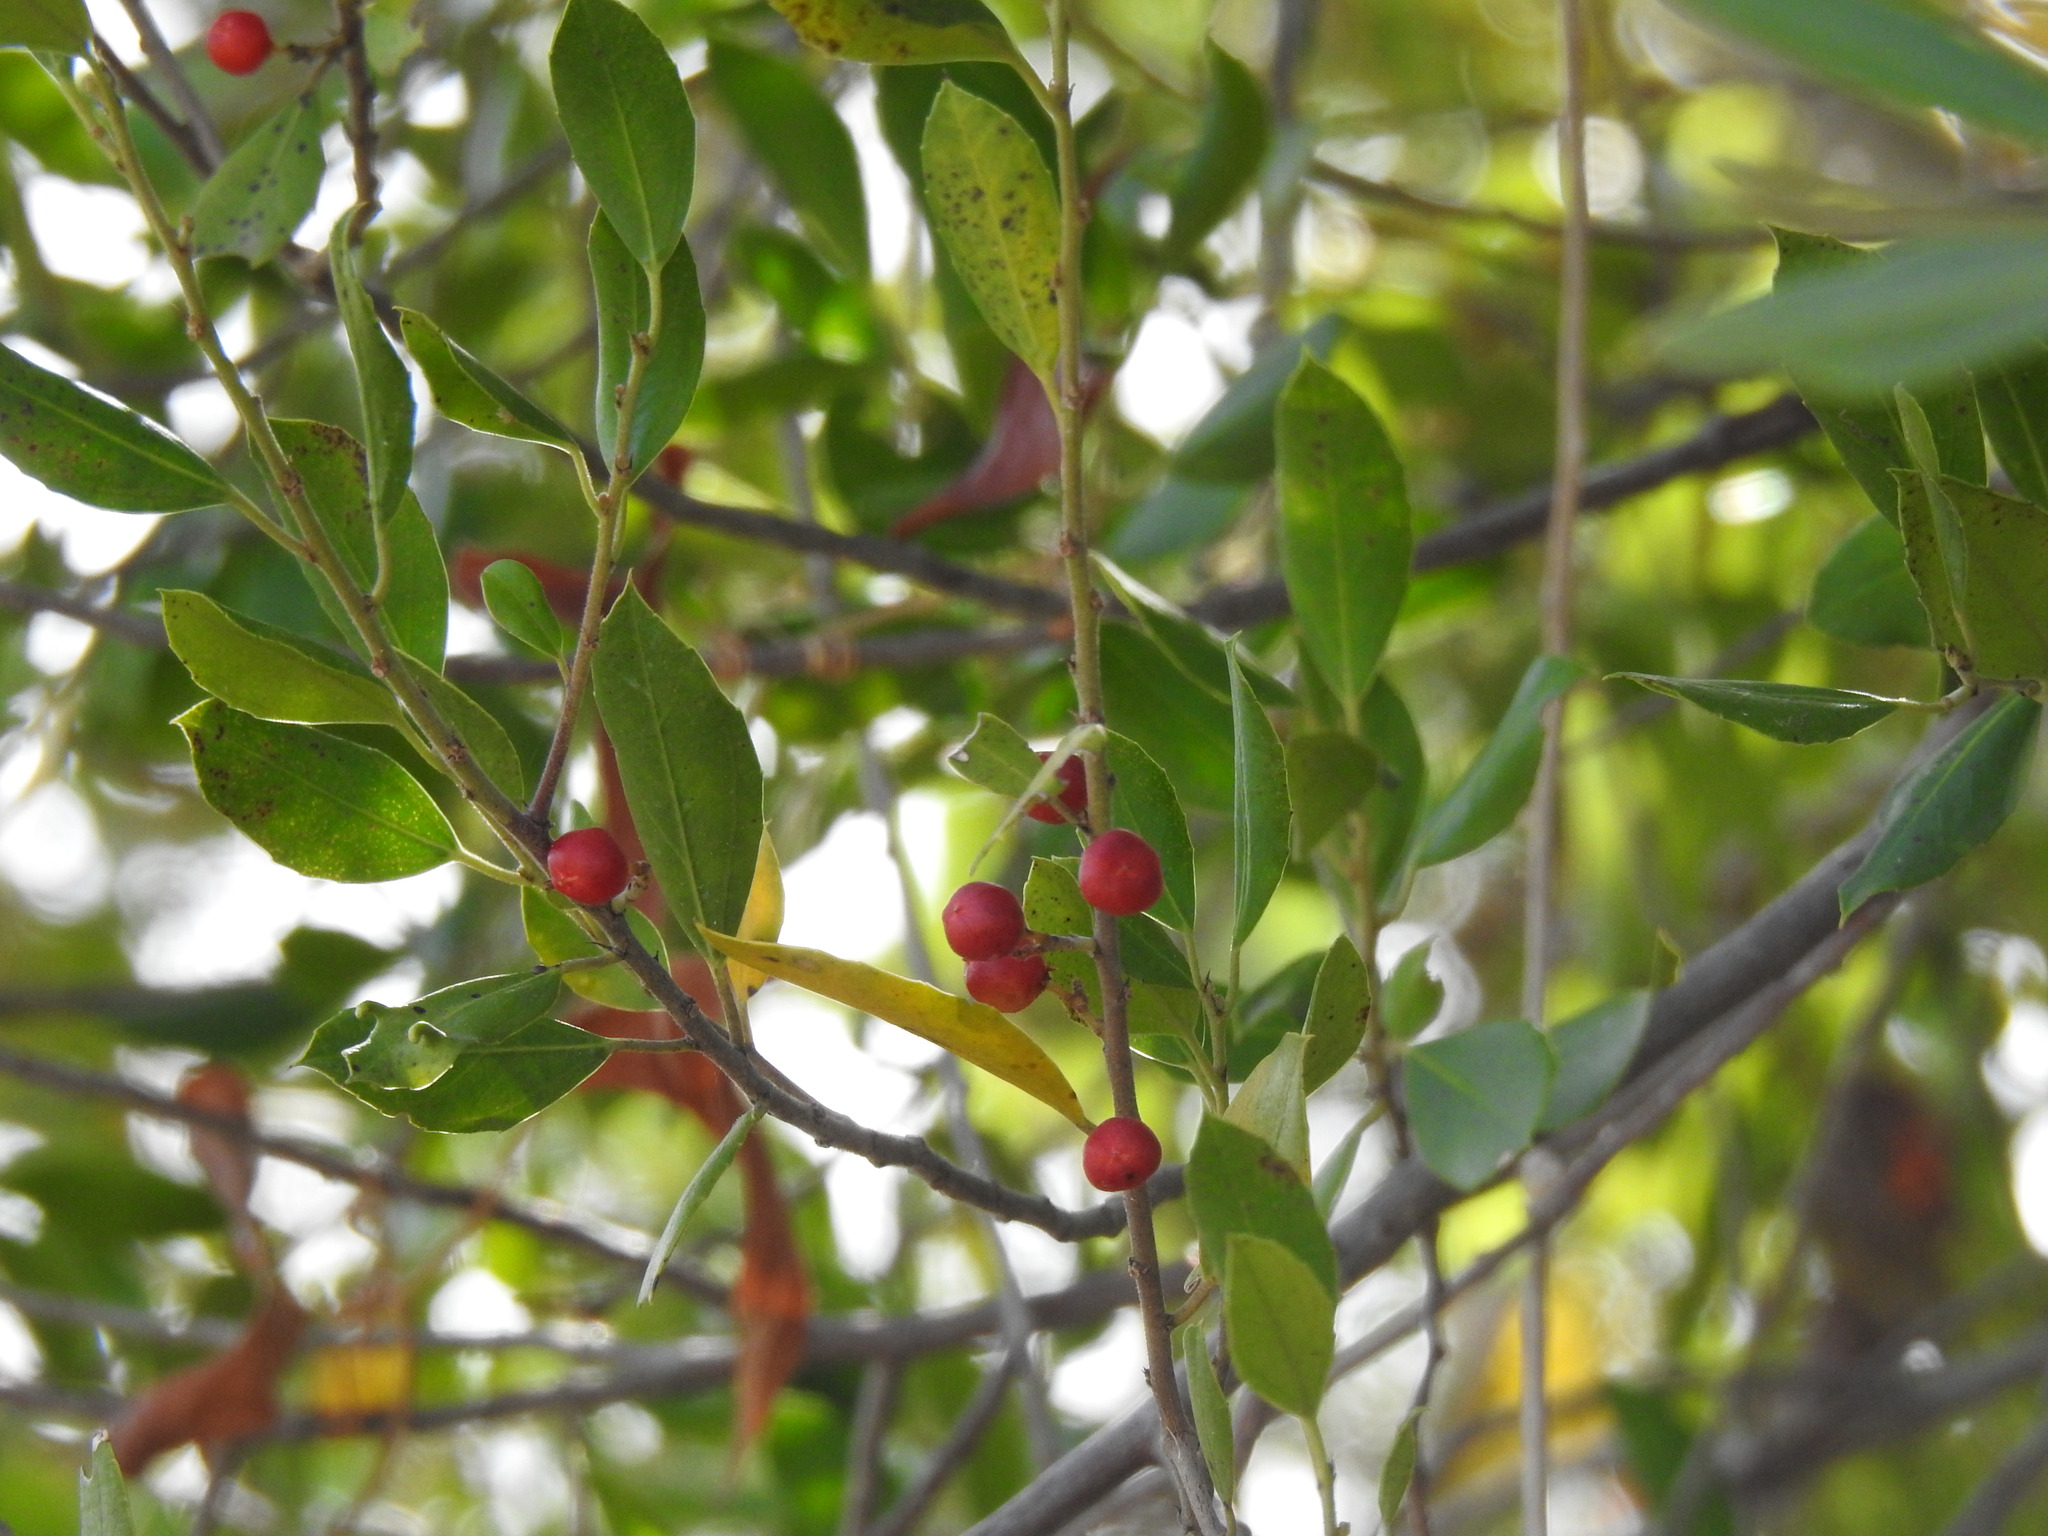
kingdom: Plantae
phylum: Tracheophyta
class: Magnoliopsida
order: Rosales
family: Rhamnaceae
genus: Rhamnus
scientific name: Rhamnus alaternus
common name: Mediterranean buckthorn
